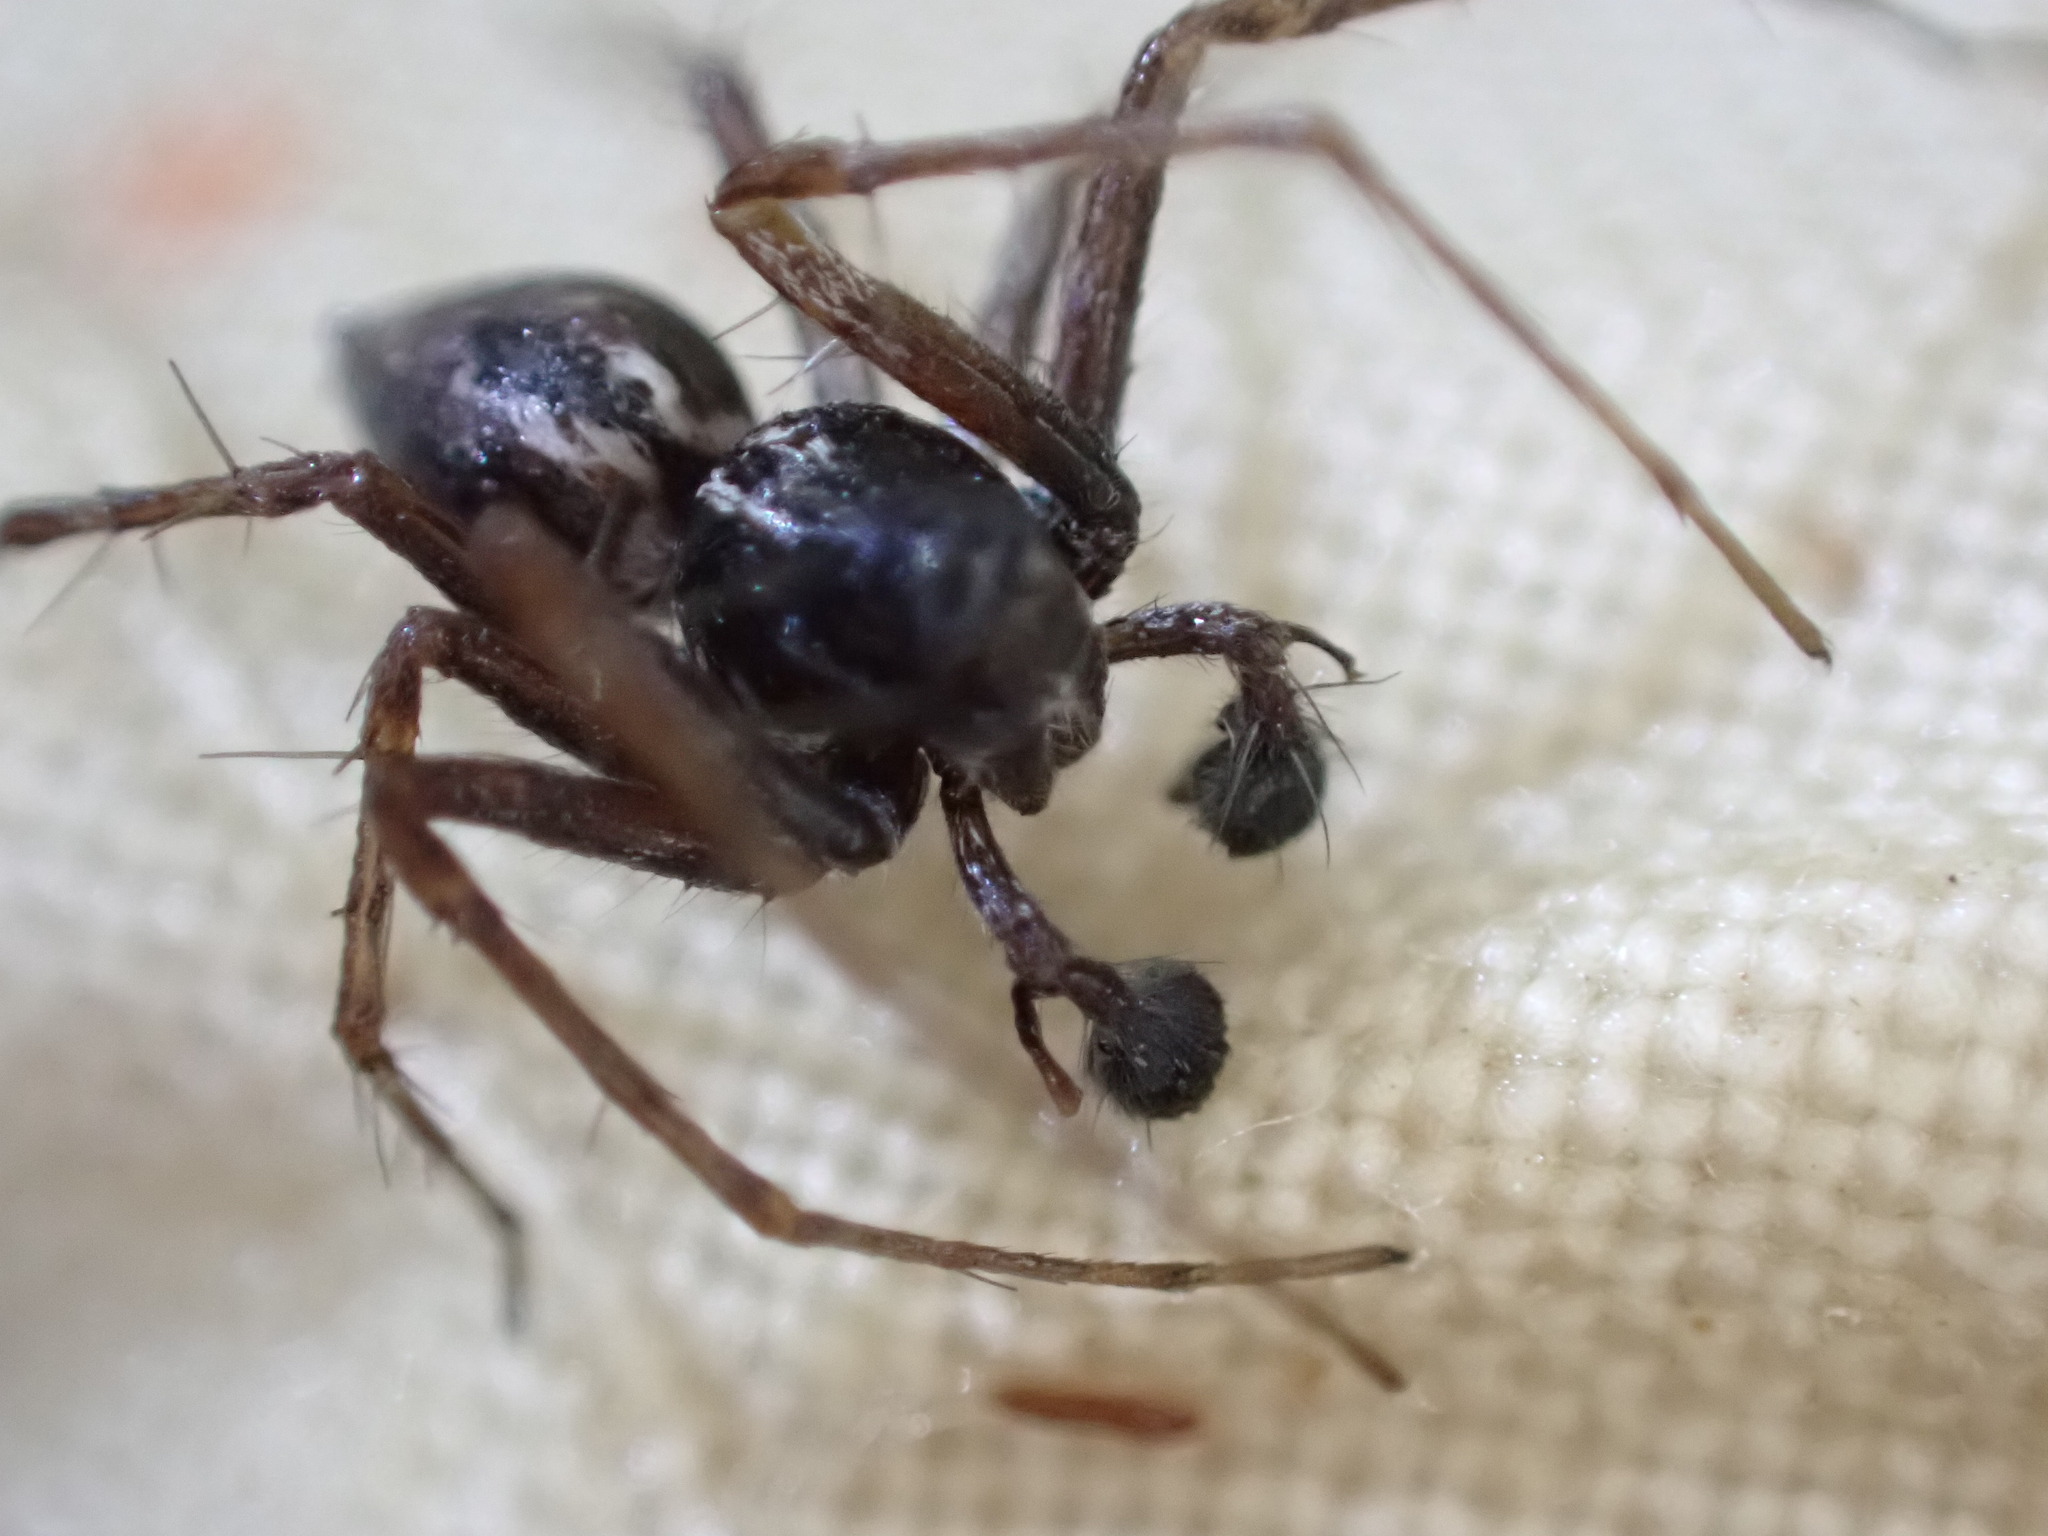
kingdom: Animalia
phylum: Arthropoda
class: Arachnida
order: Araneae
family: Oxyopidae
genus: Oxyopes
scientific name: Oxyopes heterophthalmus
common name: Lynx spider
